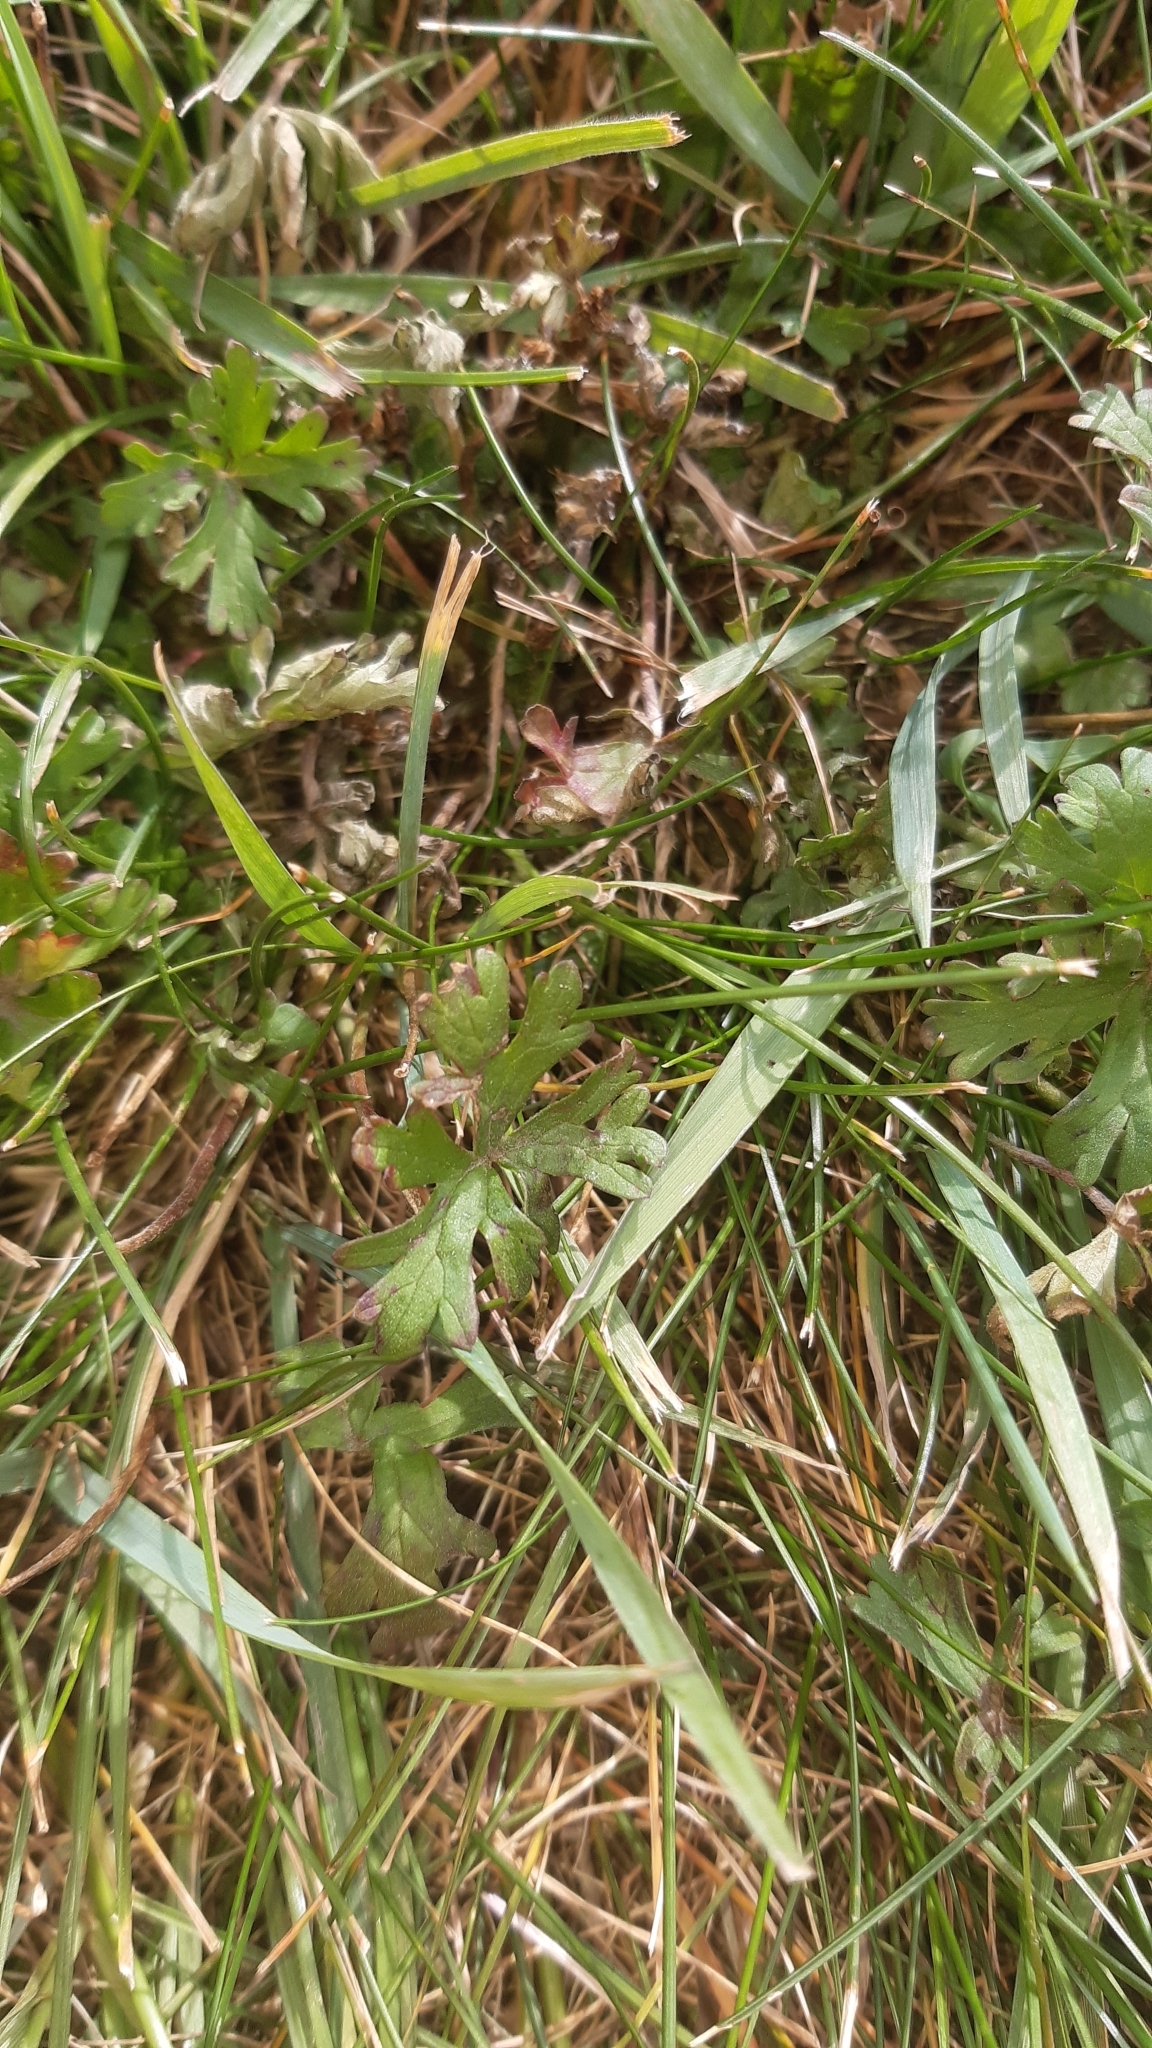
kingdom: Plantae
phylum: Tracheophyta
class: Magnoliopsida
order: Geraniales
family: Geraniaceae
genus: Geranium
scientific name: Geranium retrorsum
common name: New zealand geranium
